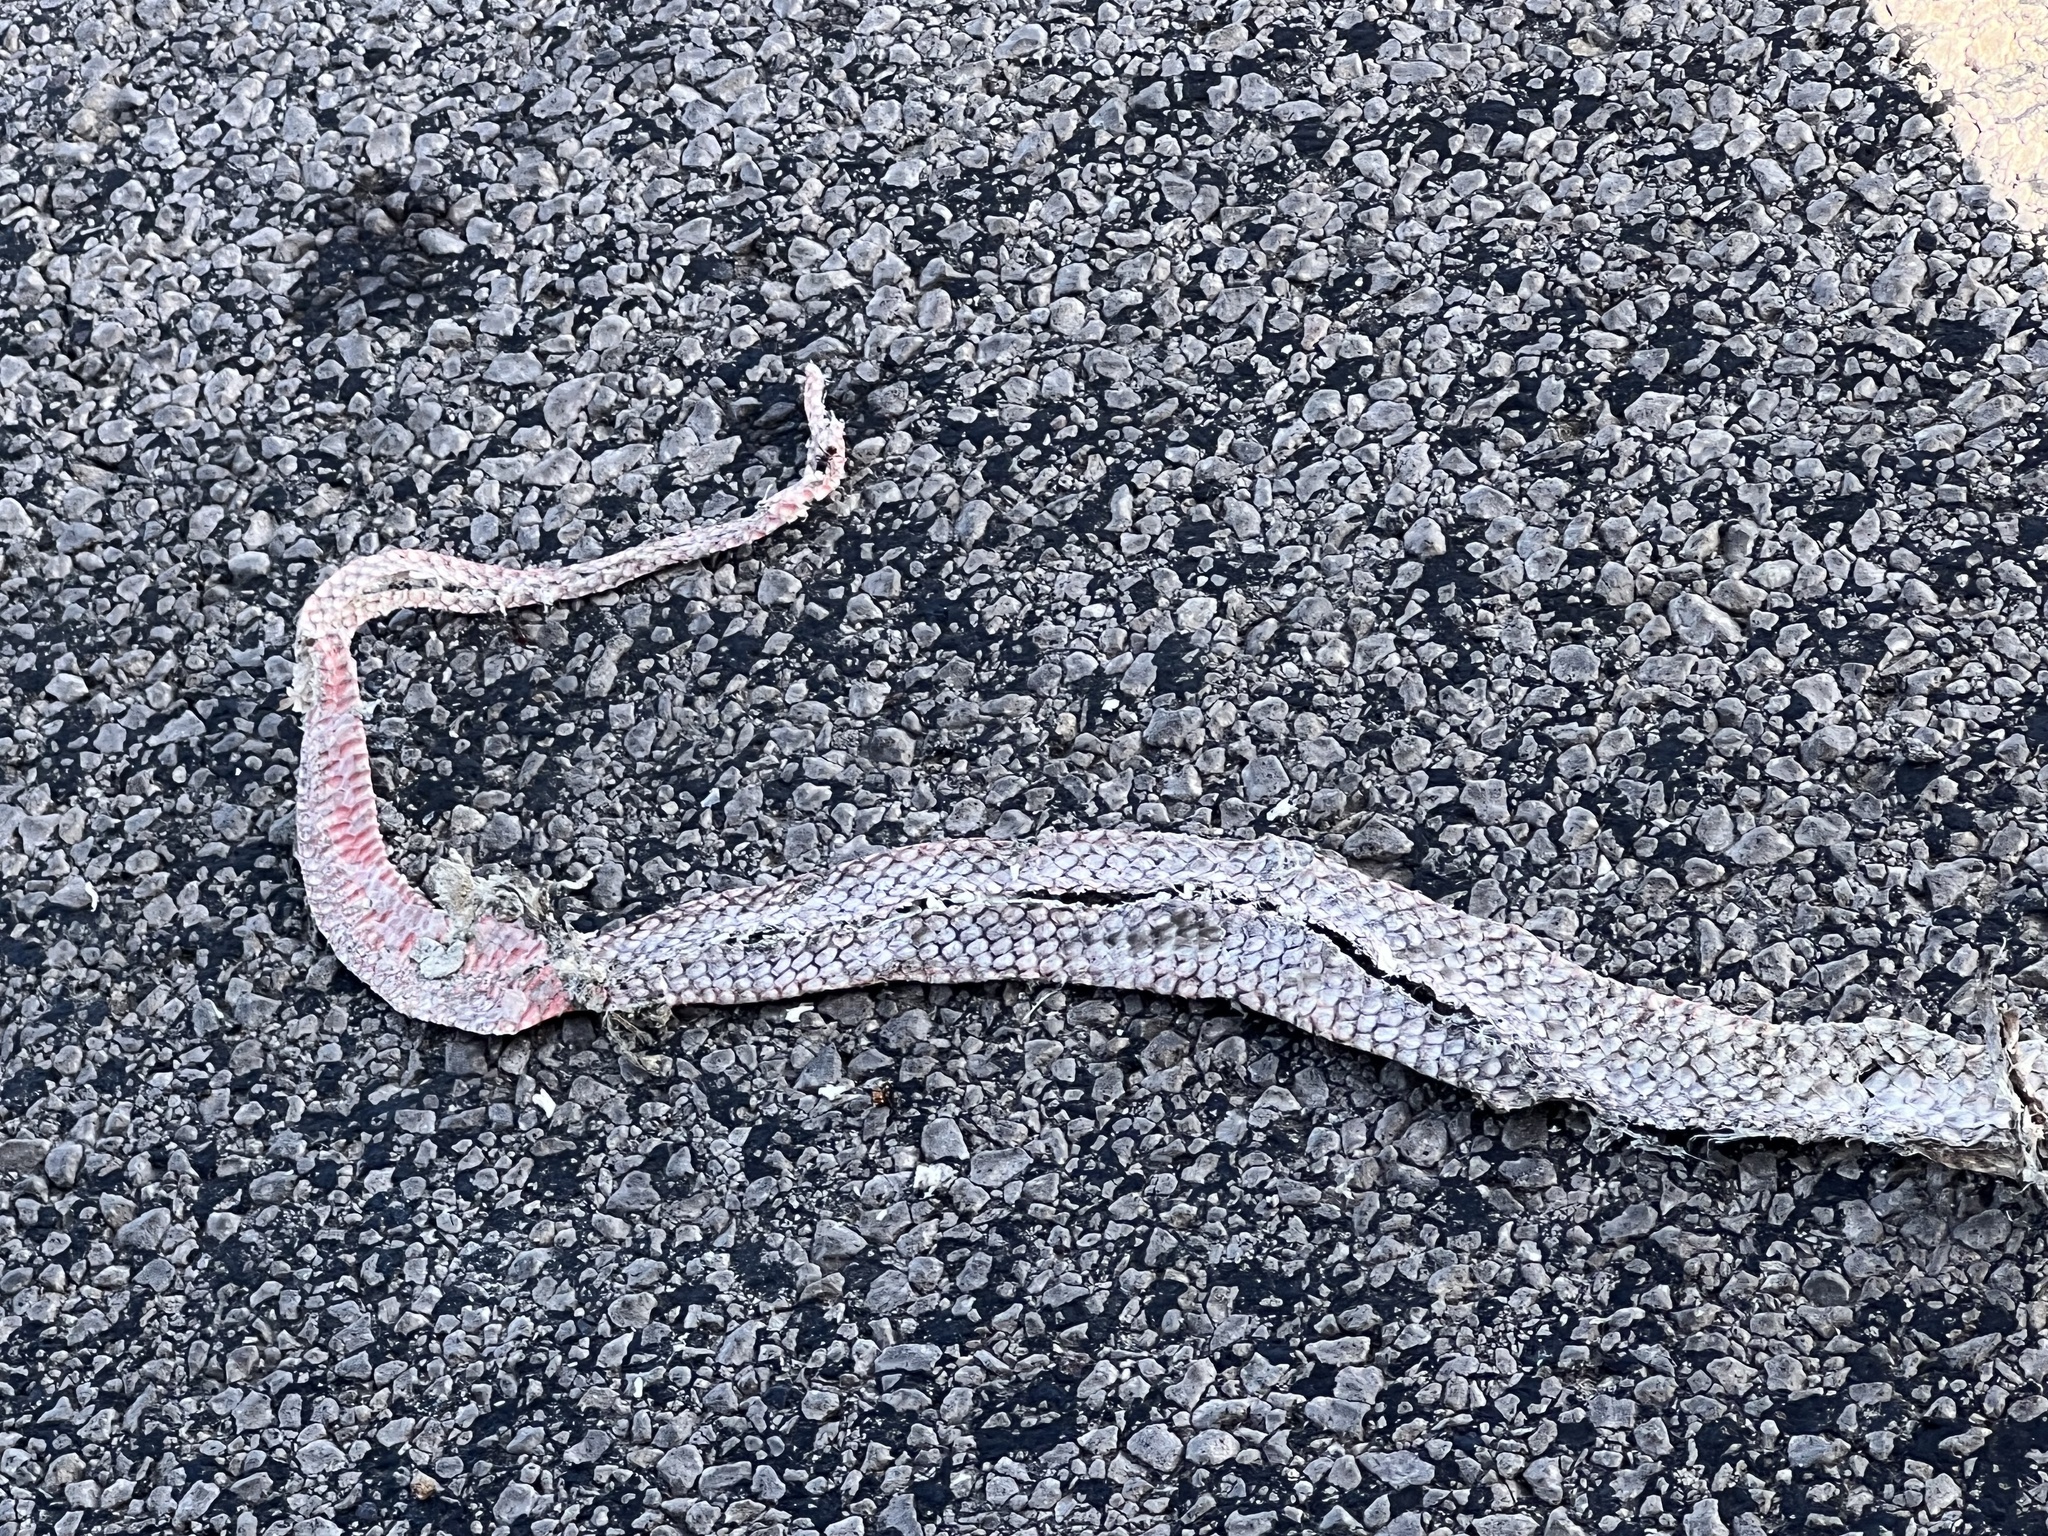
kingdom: Animalia
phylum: Chordata
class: Squamata
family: Colubridae
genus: Masticophis
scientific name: Masticophis flagellum
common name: Coachwhip
